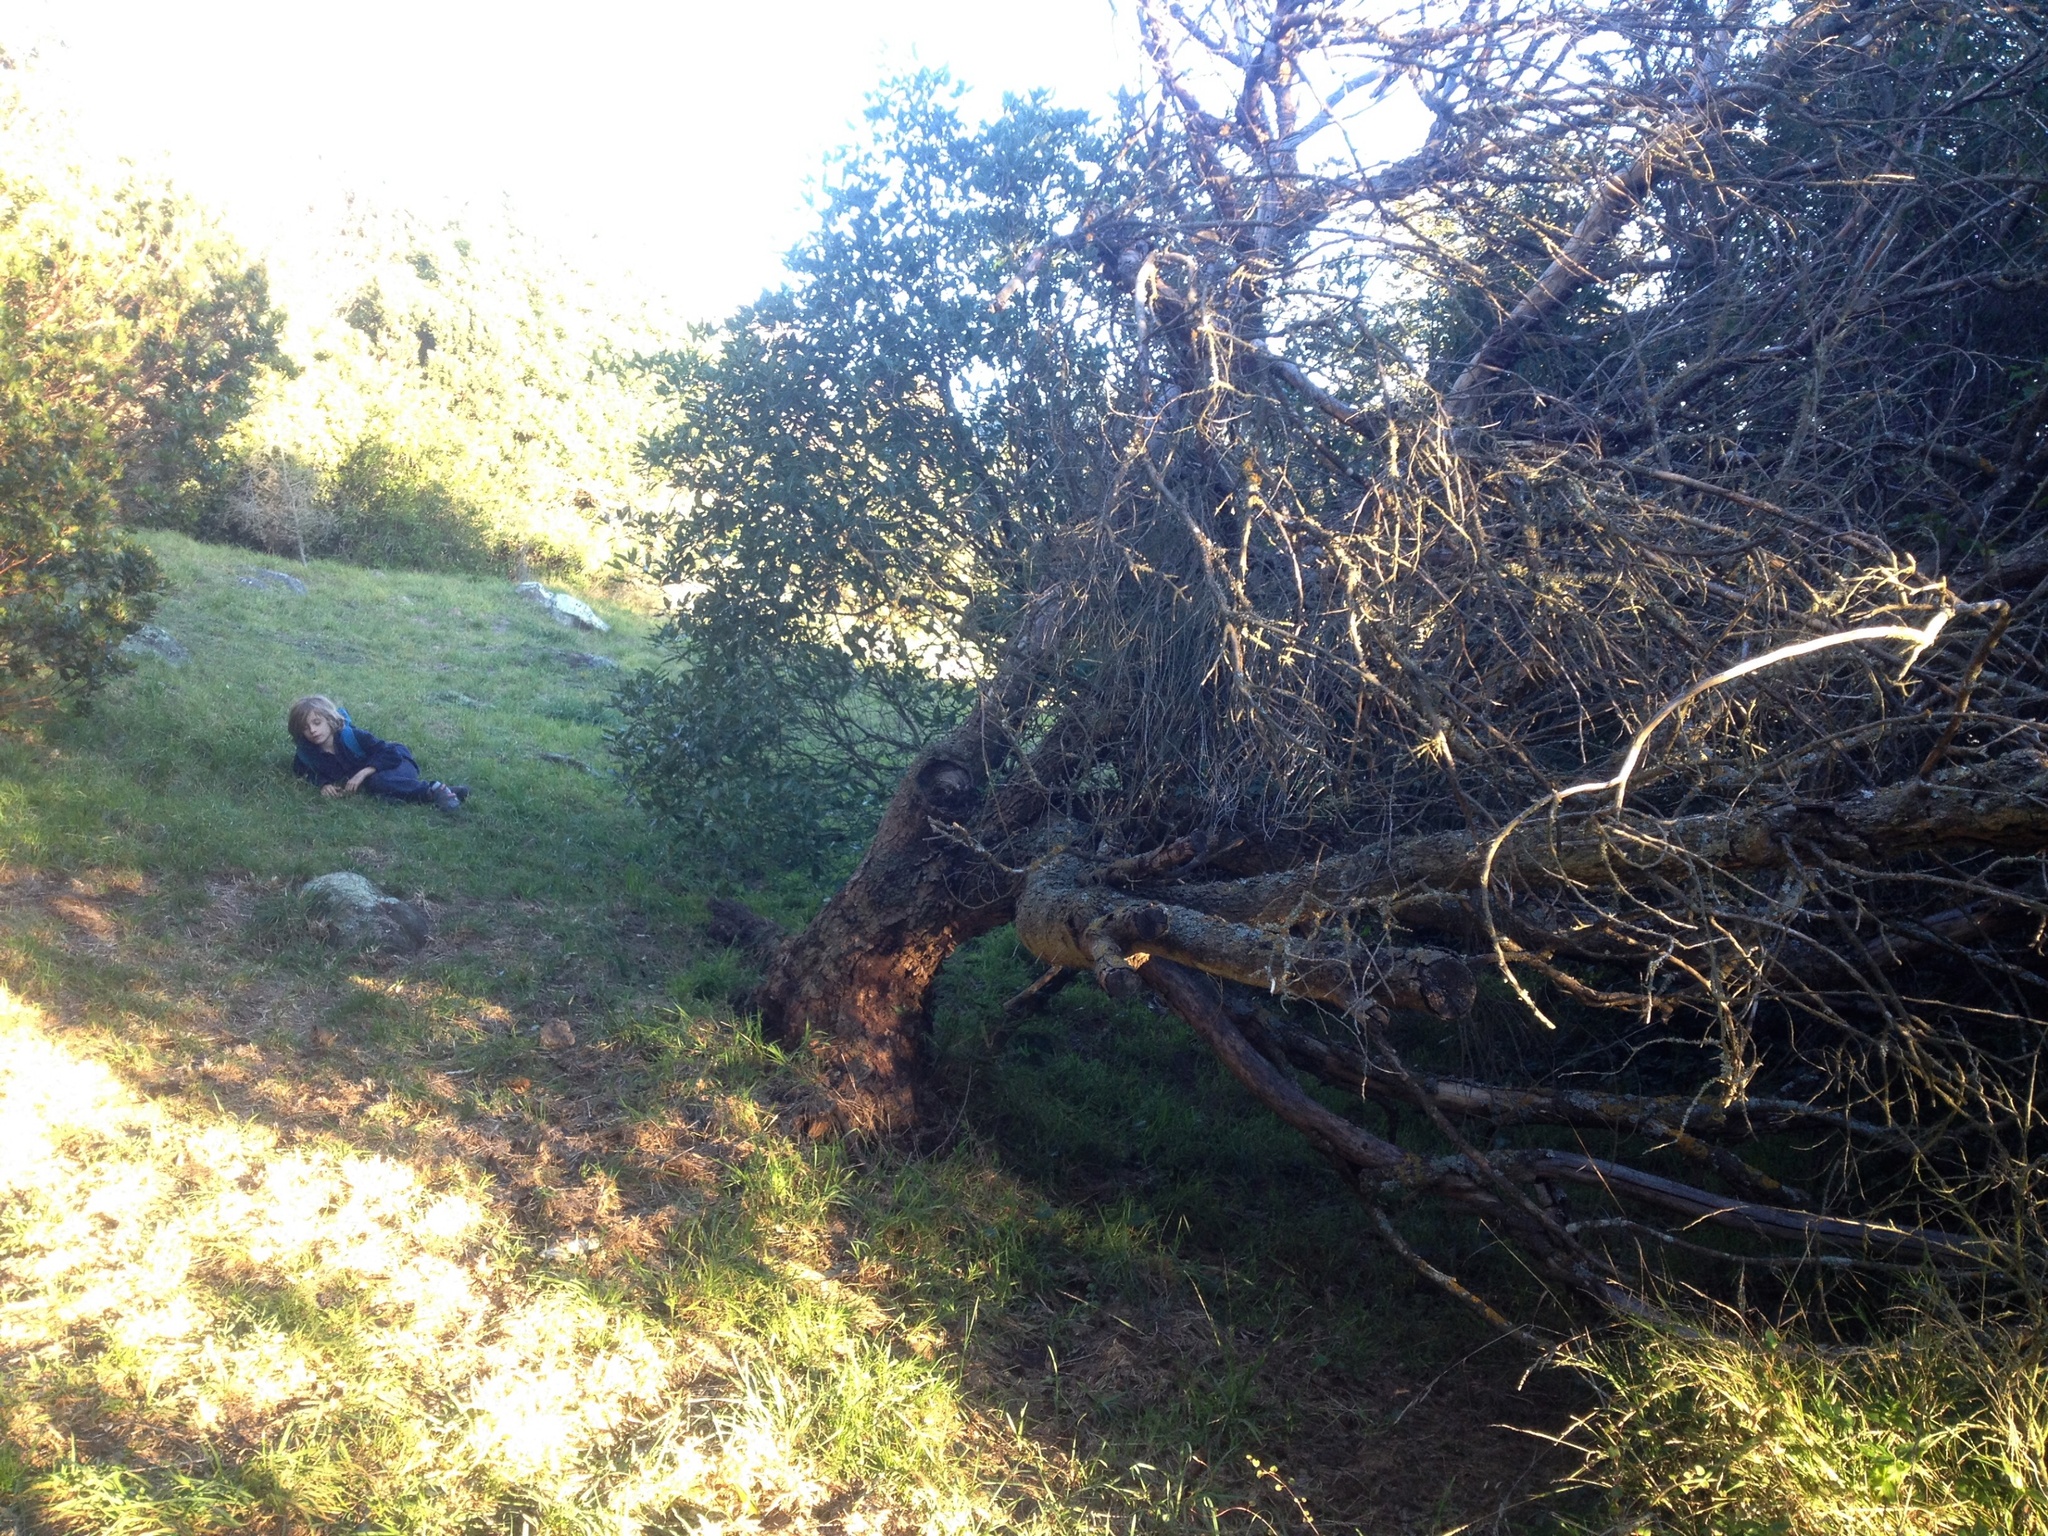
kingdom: Plantae
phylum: Tracheophyta
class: Magnoliopsida
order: Fabales
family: Fabaceae
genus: Chamaecytisus
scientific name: Chamaecytisus prolifer
